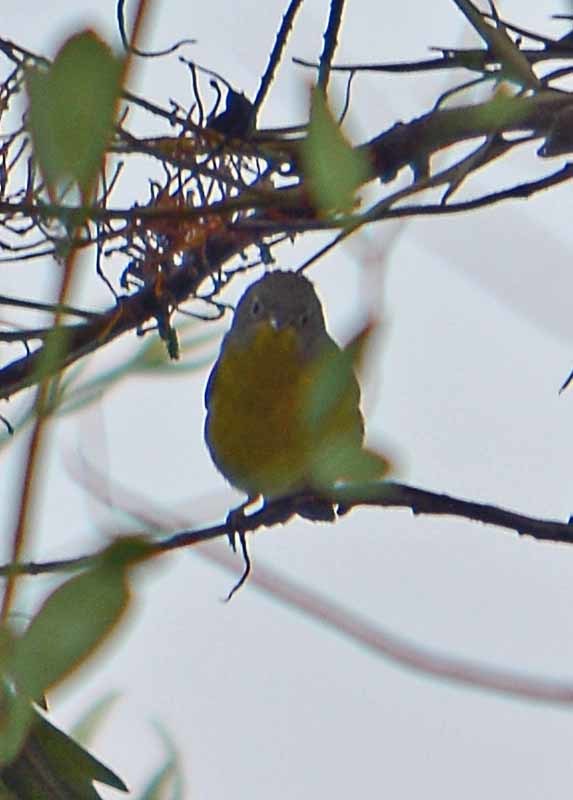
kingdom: Animalia
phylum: Chordata
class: Aves
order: Passeriformes
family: Parulidae
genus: Leiothlypis
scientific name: Leiothlypis ruficapilla
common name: Nashville warbler
